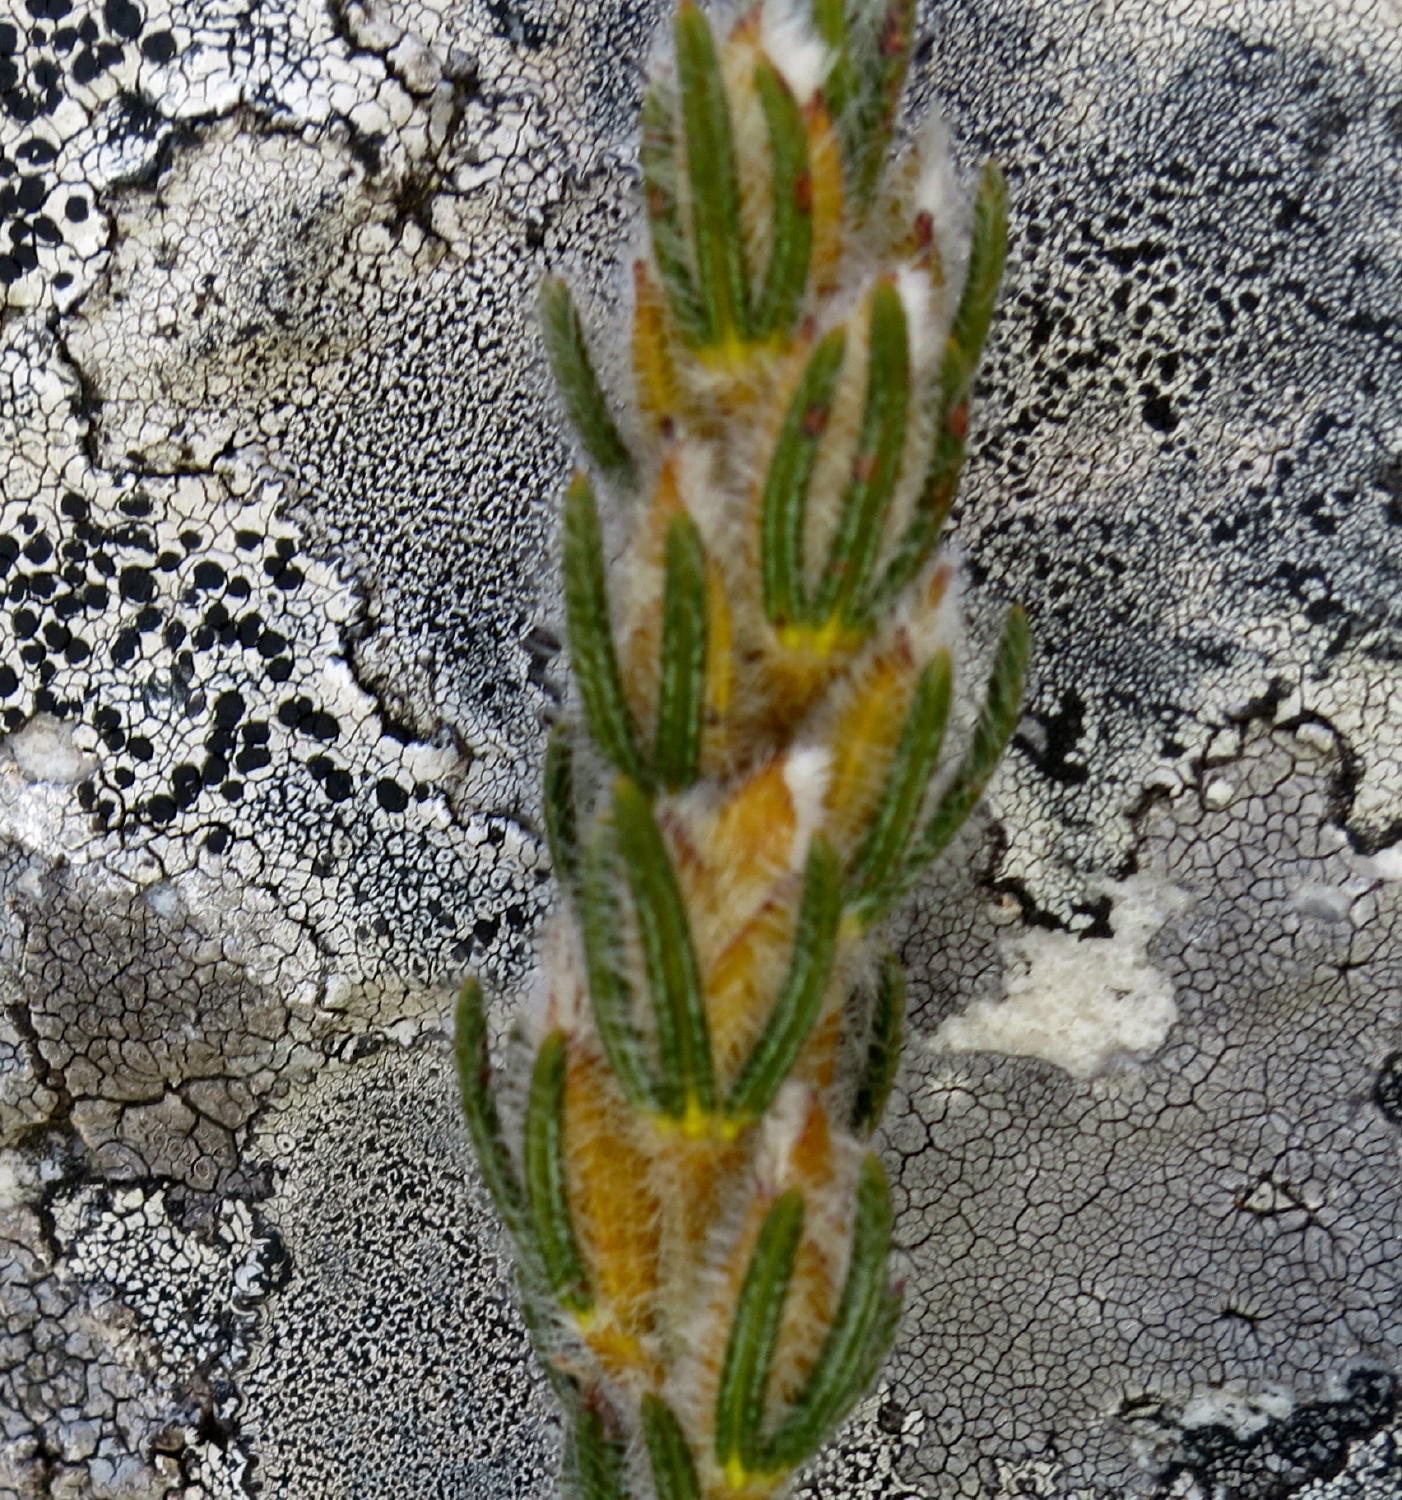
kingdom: Plantae
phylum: Tracheophyta
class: Magnoliopsida
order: Fabales
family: Fabaceae
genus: Cyclopia
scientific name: Cyclopia alopecuroides
